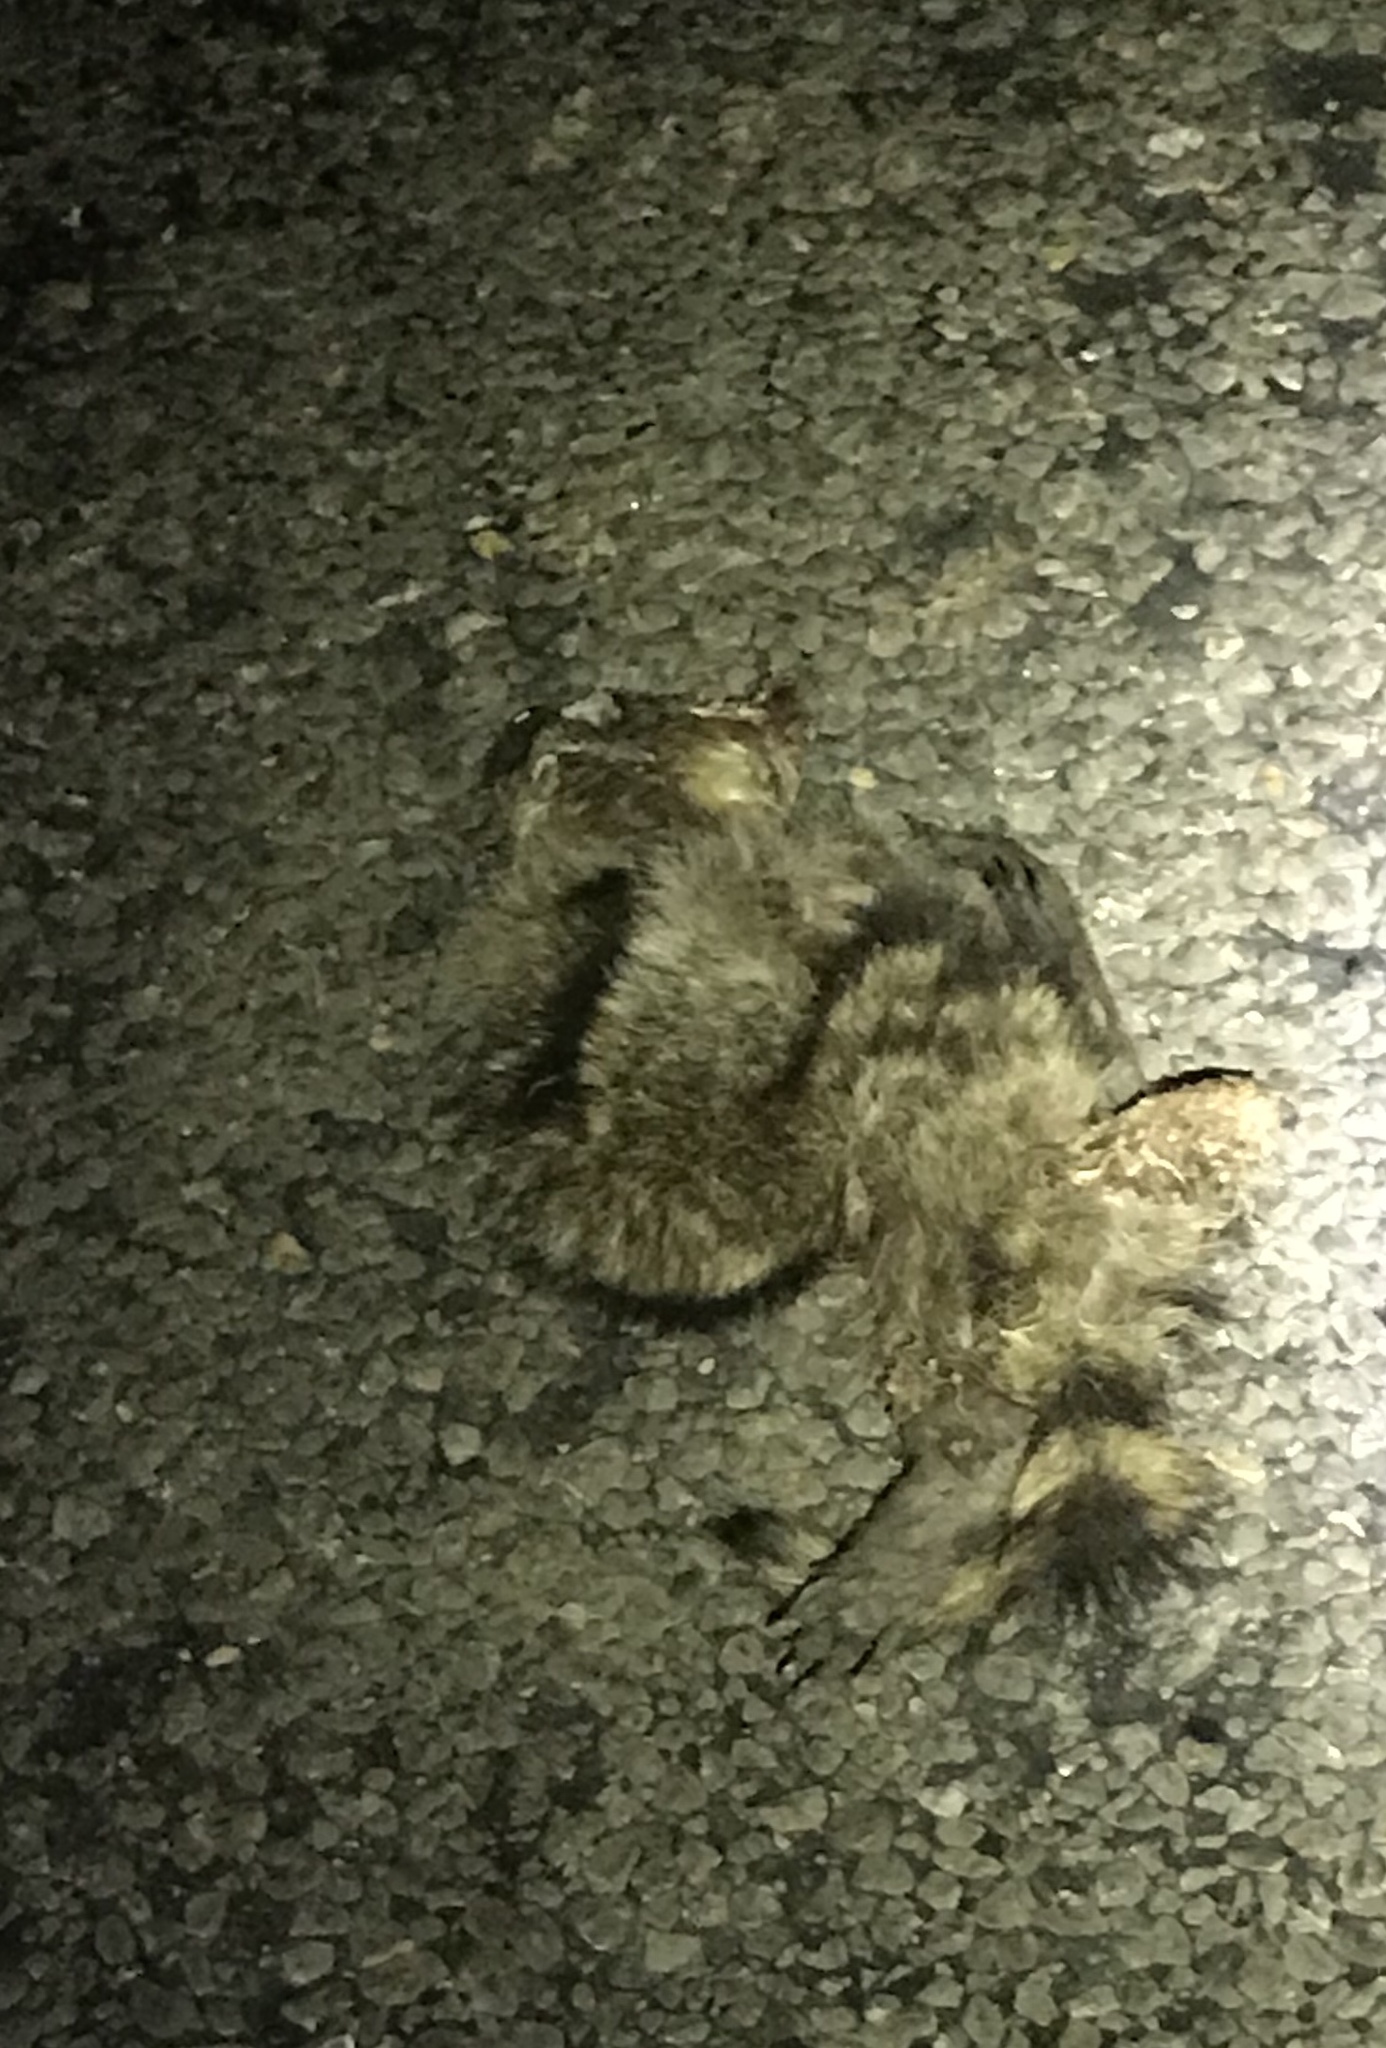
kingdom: Animalia
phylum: Chordata
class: Mammalia
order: Carnivora
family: Procyonidae
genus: Procyon
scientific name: Procyon lotor
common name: Raccoon
